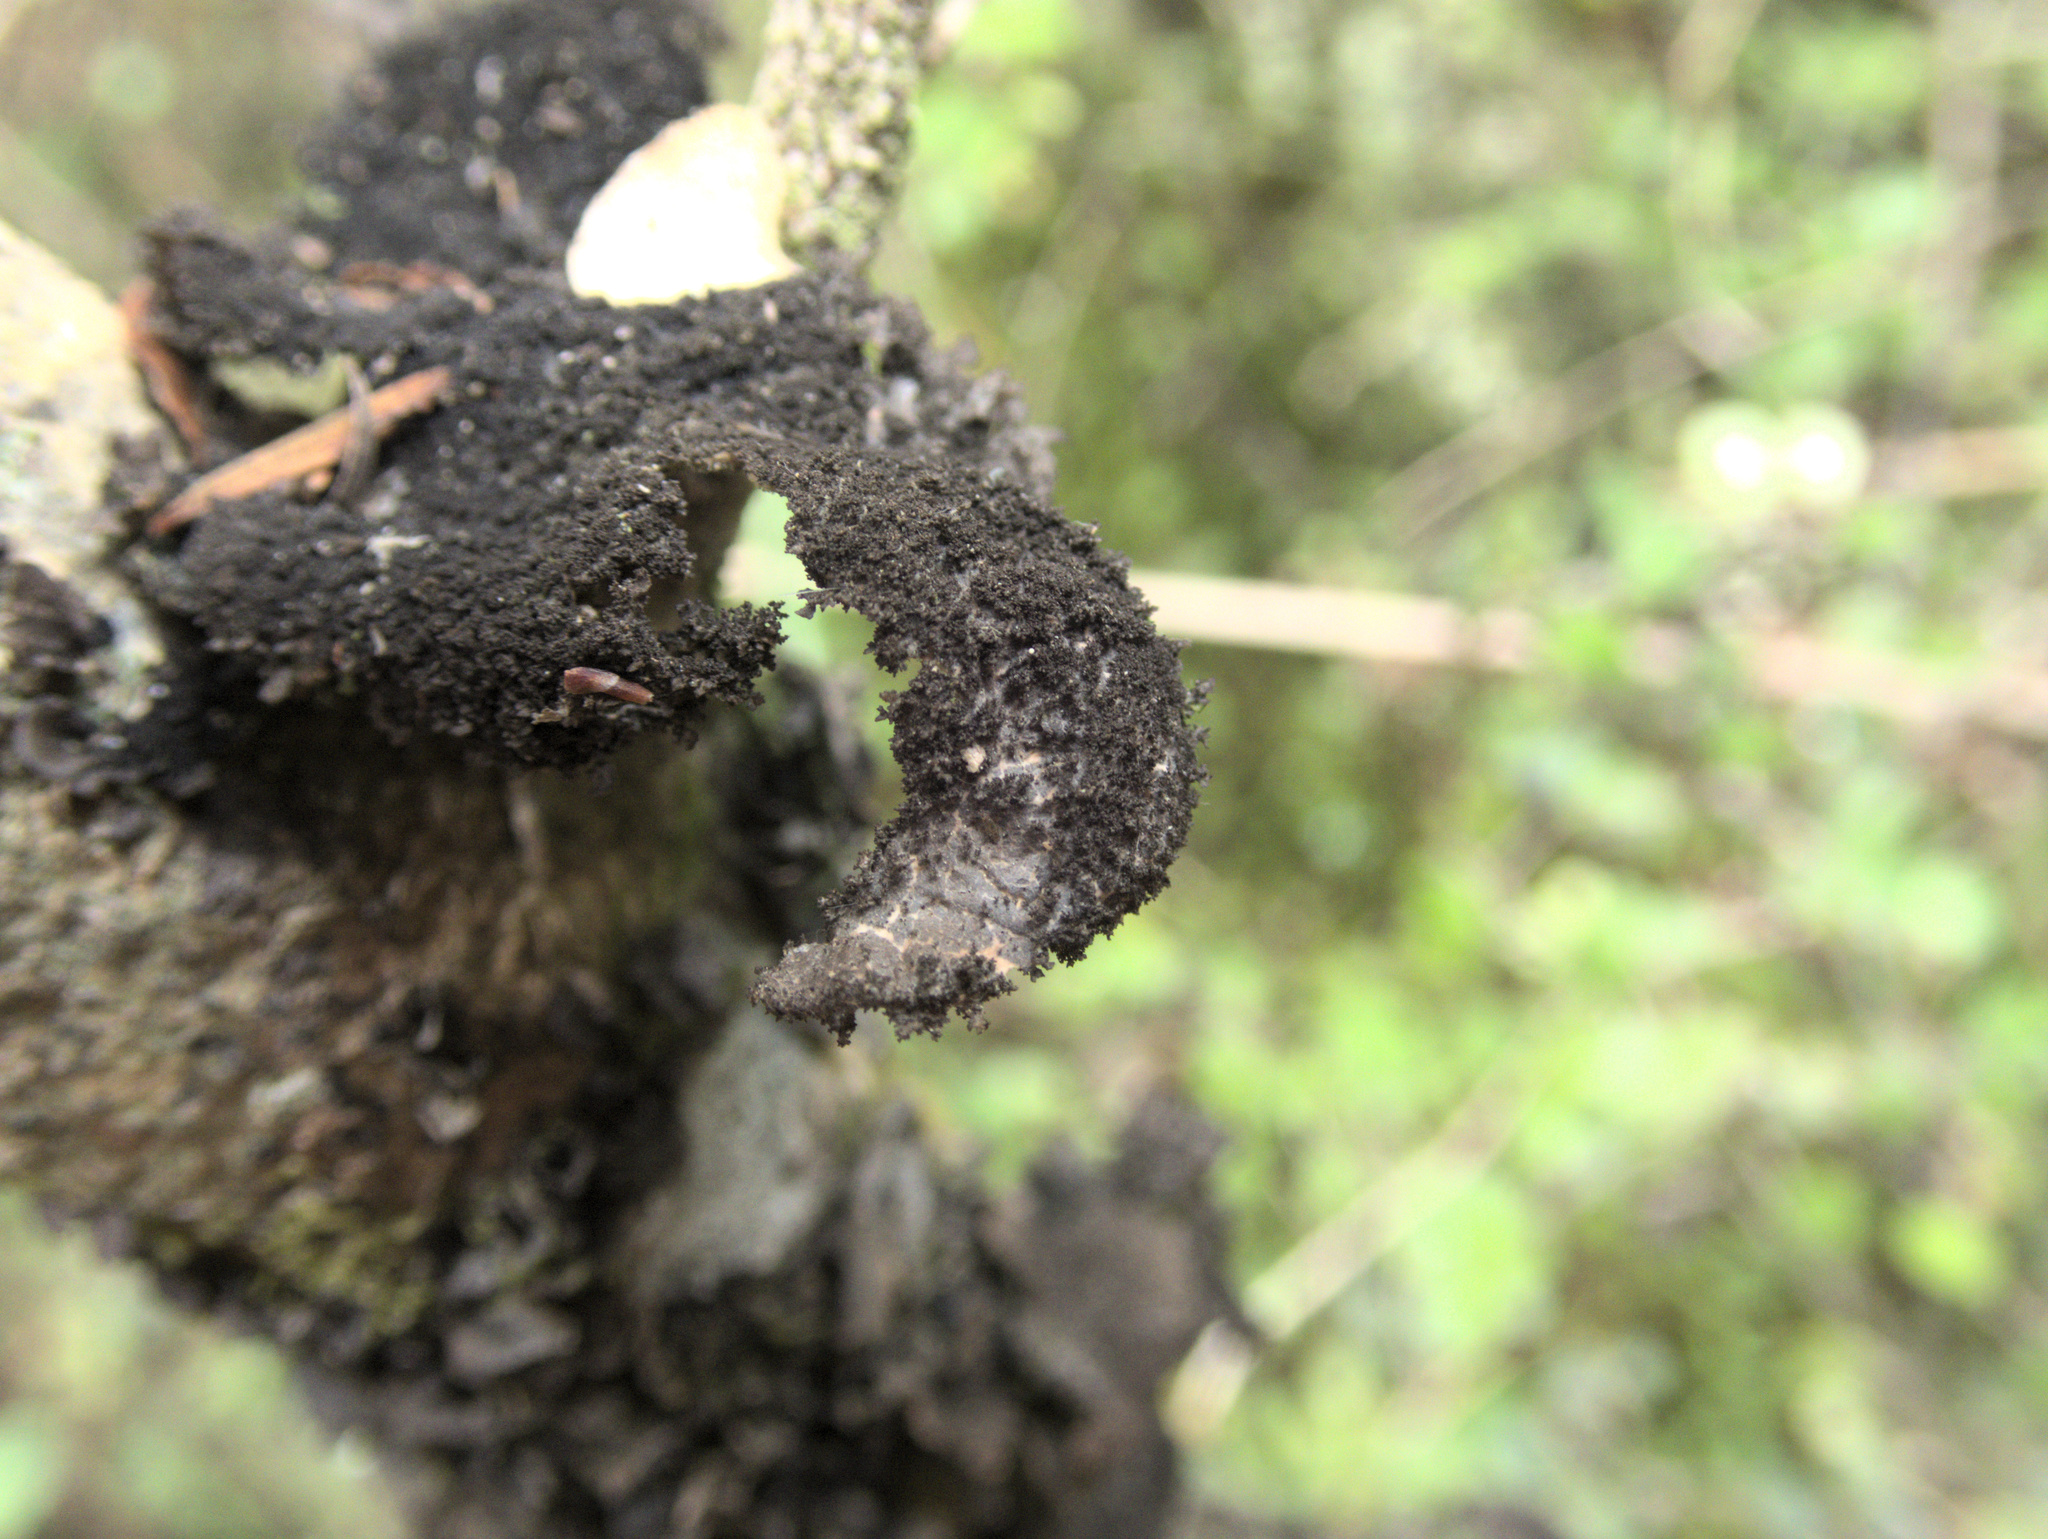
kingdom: Fungi
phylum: Ascomycota
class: Lecanoromycetes
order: Peltigerales
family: Lobariaceae
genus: Sticta
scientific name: Sticta fuliginosa
